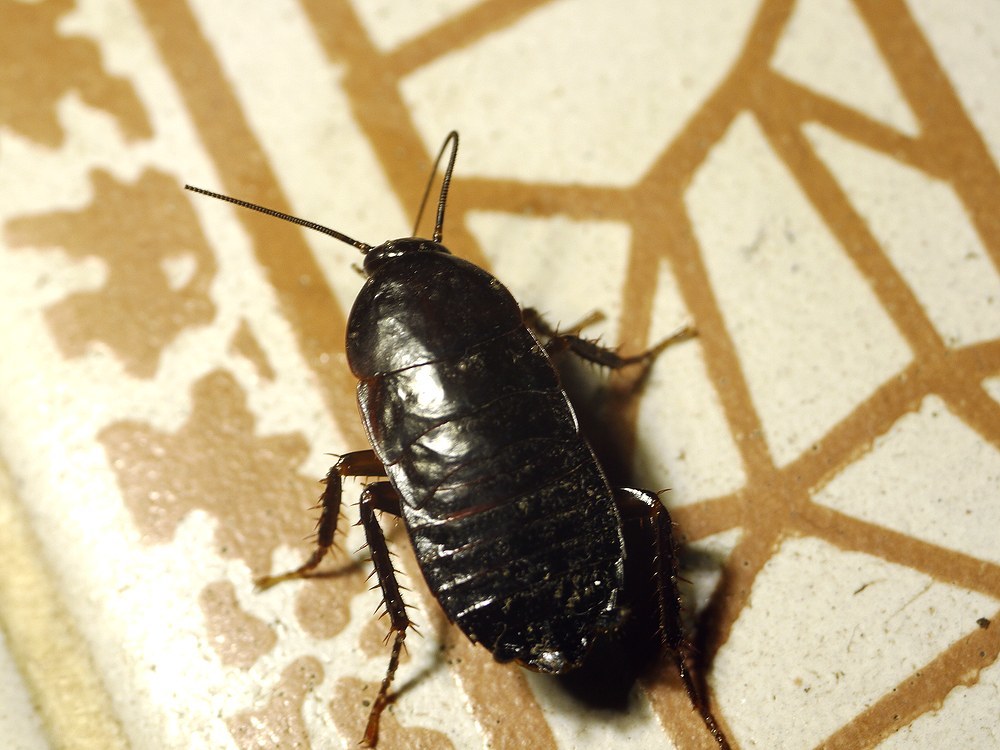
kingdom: Animalia
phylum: Arthropoda
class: Insecta
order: Blattodea
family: Blattidae
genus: Blatta
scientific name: Blatta orientalis
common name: Oriental cockroach
